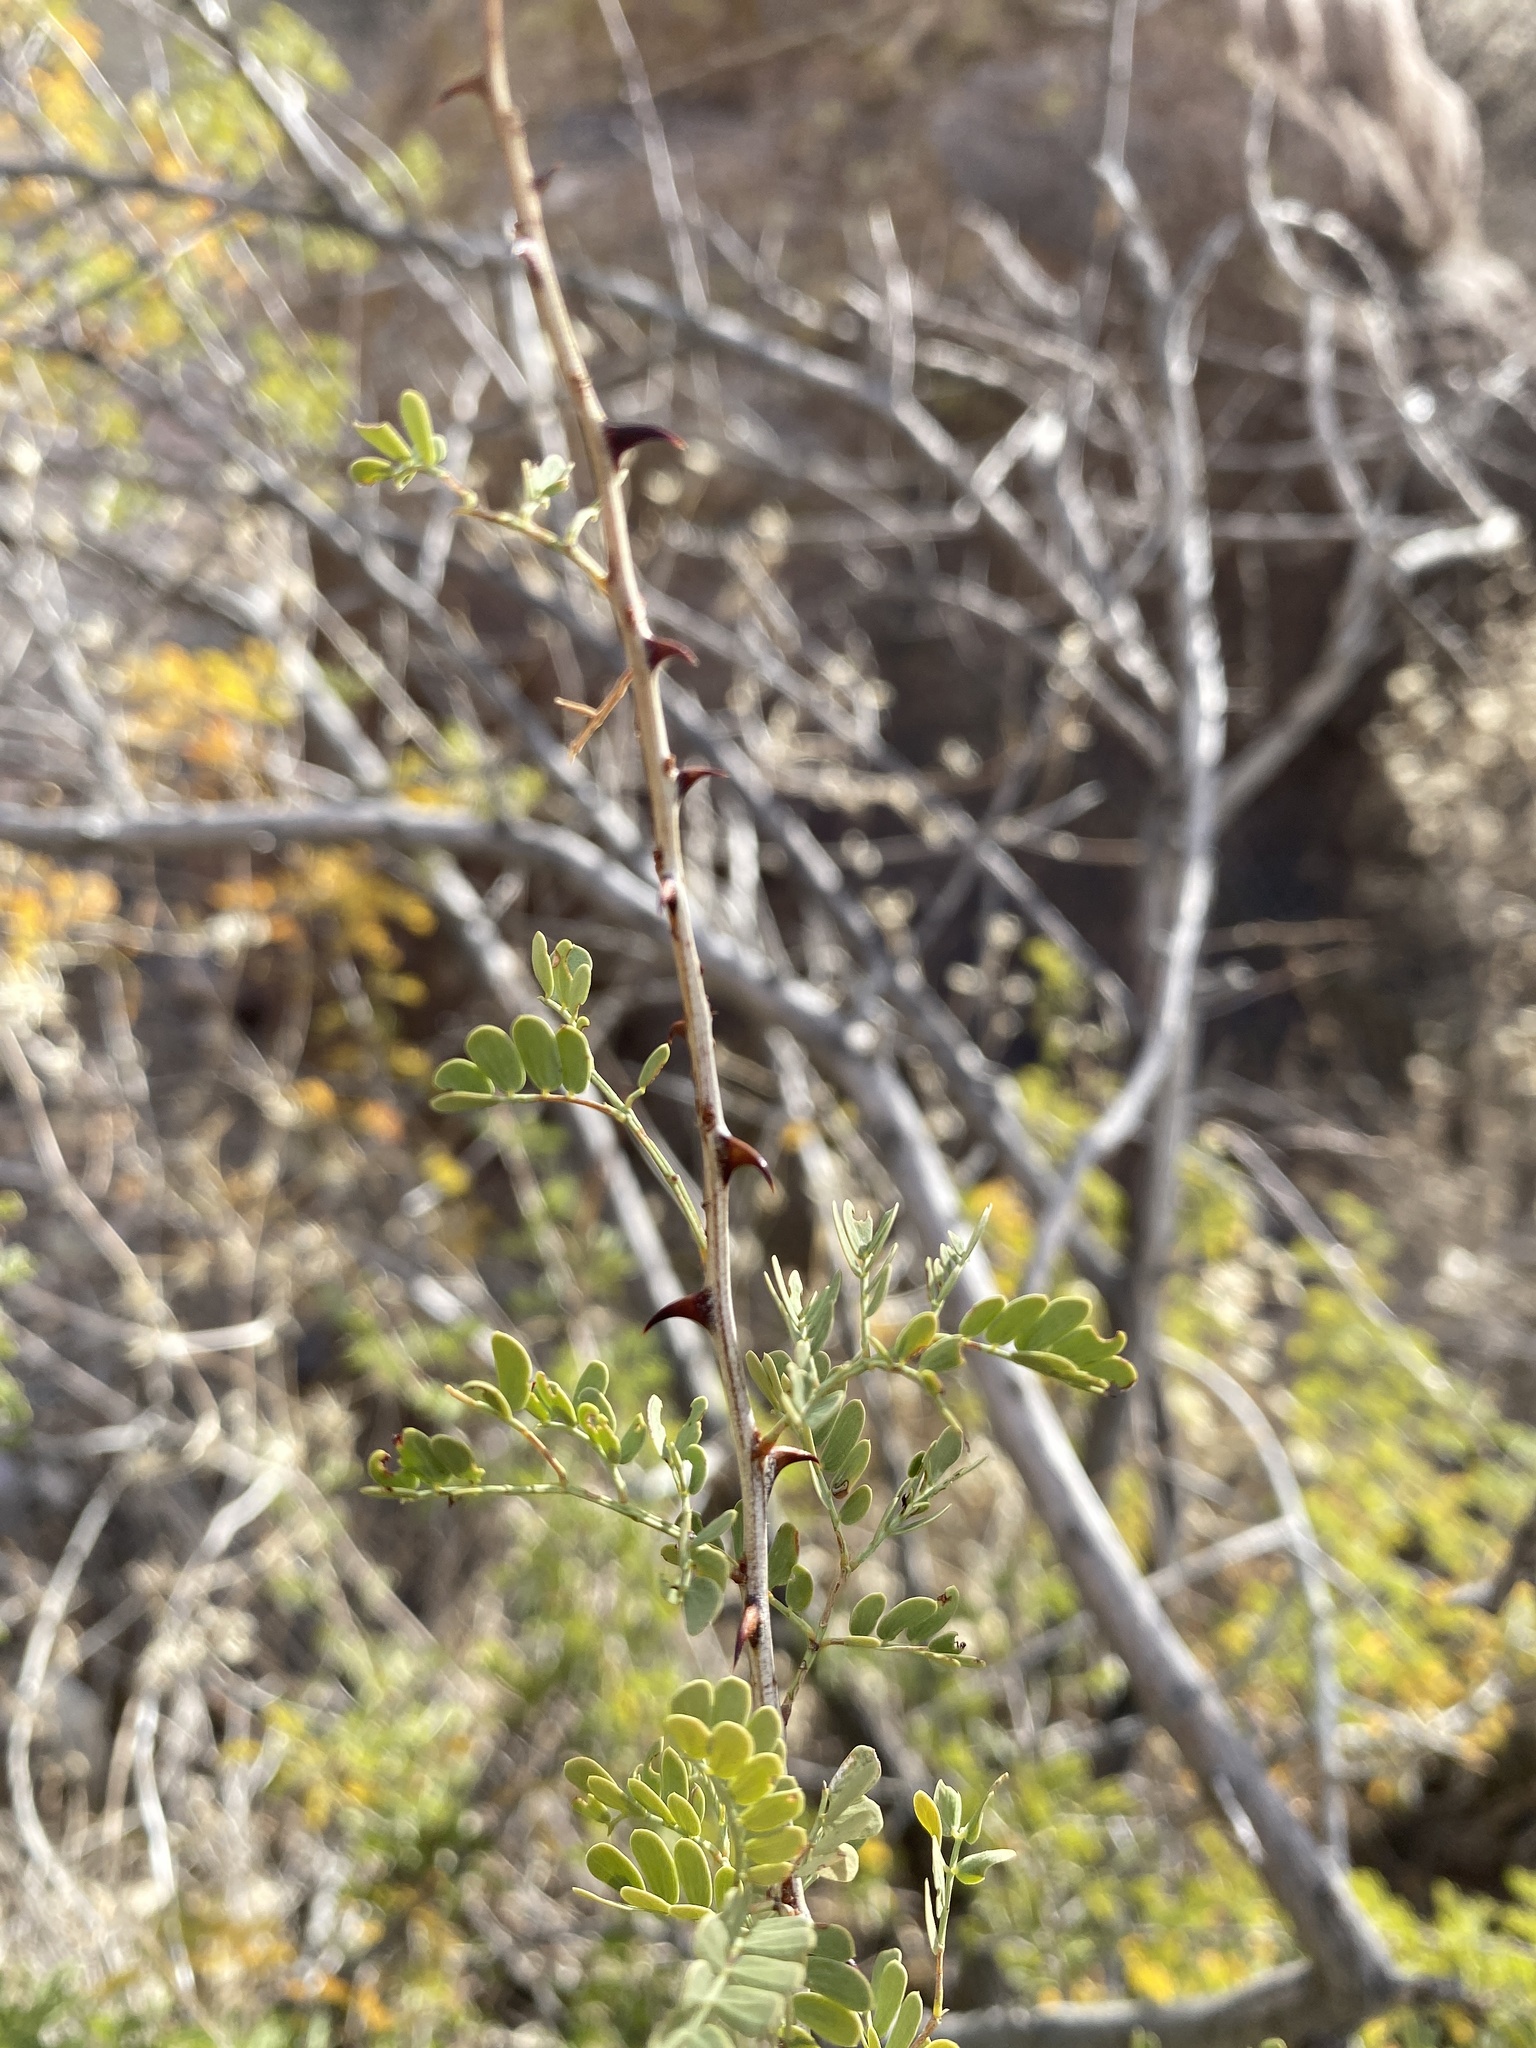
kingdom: Plantae
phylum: Tracheophyta
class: Magnoliopsida
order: Fabales
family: Fabaceae
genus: Senegalia
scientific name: Senegalia greggii
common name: Texas-mimosa
